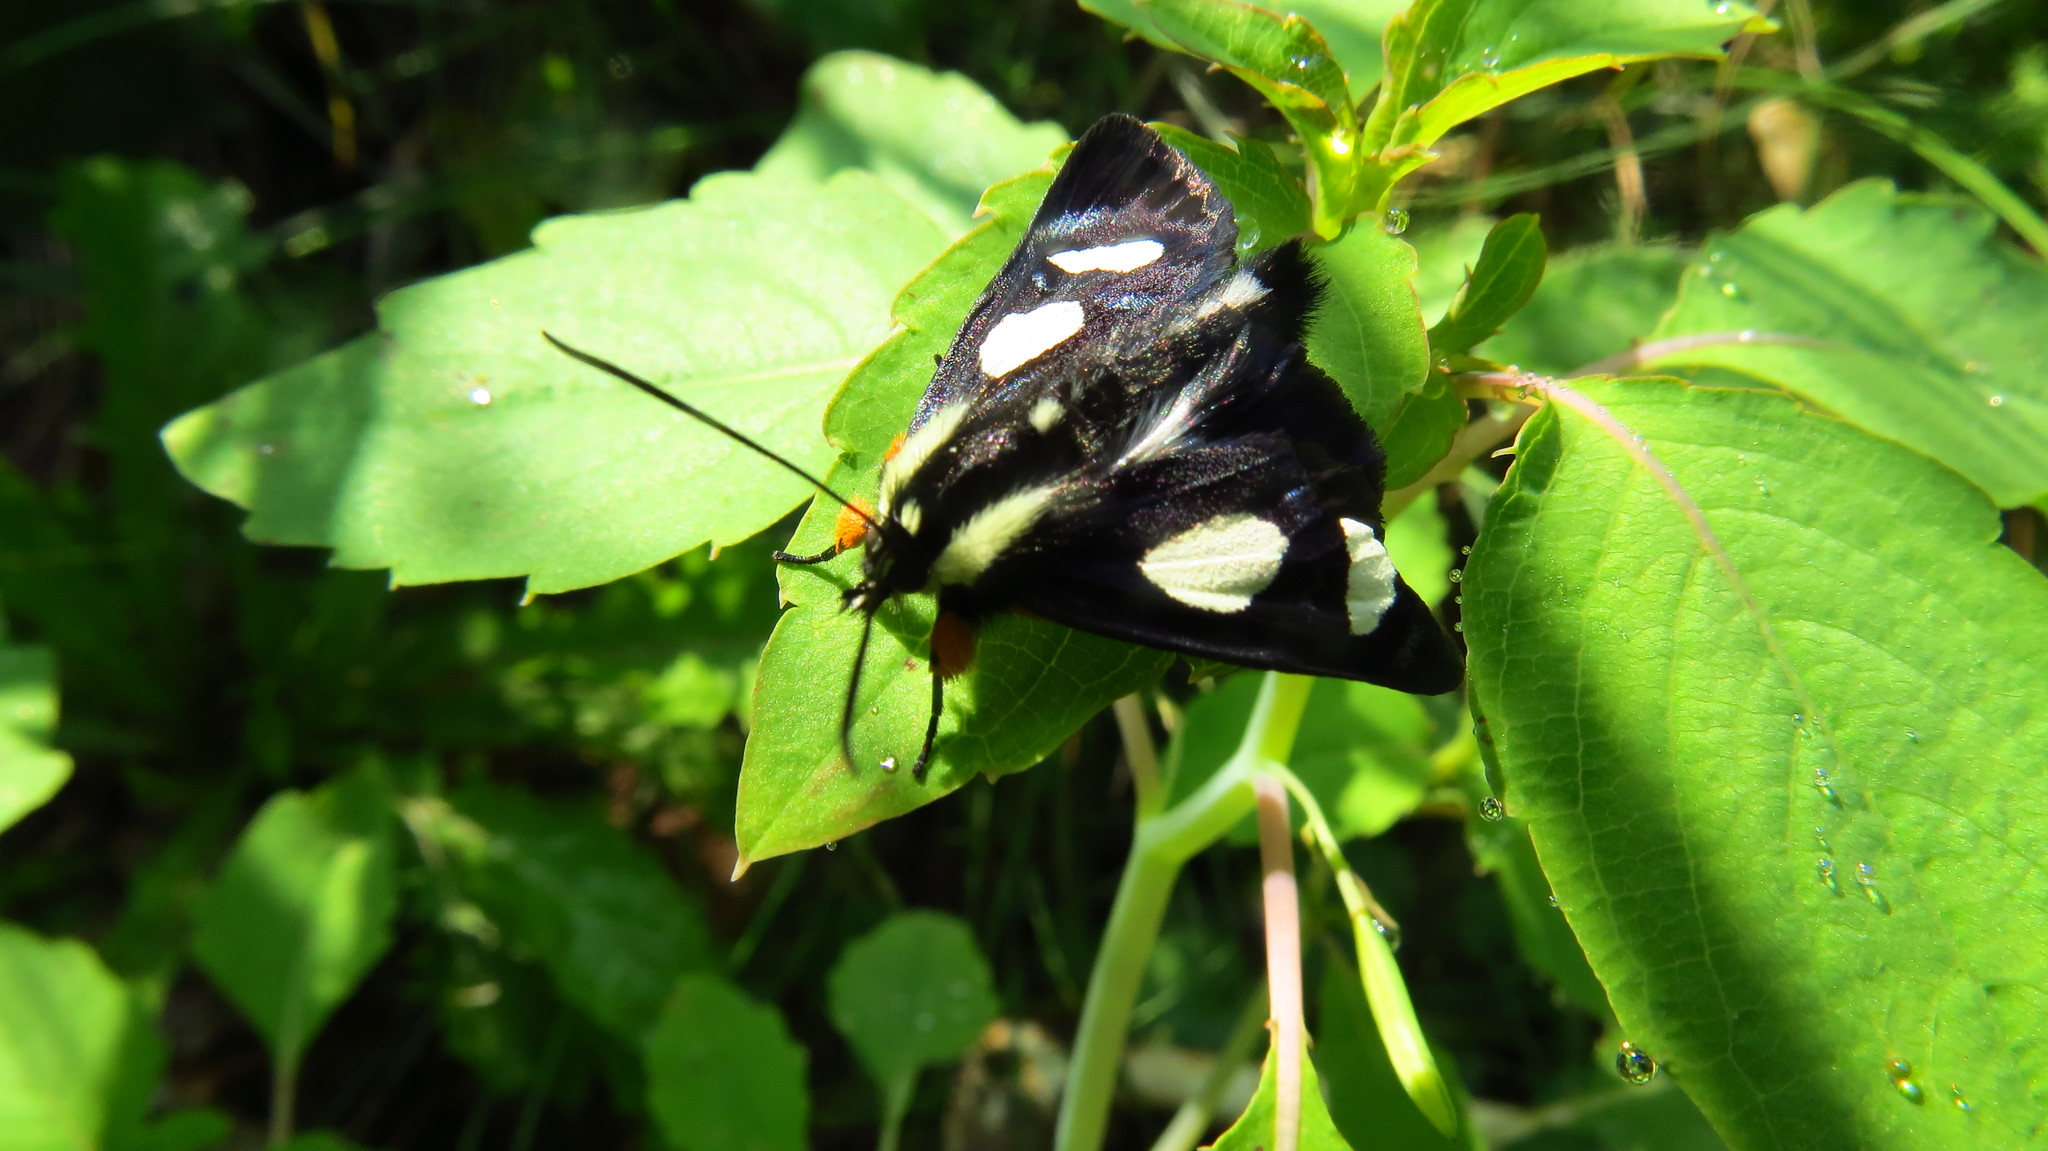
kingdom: Animalia
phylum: Arthropoda
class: Insecta
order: Lepidoptera
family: Noctuidae
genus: Alypia
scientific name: Alypia octomaculata
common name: Eight-spotted forester
